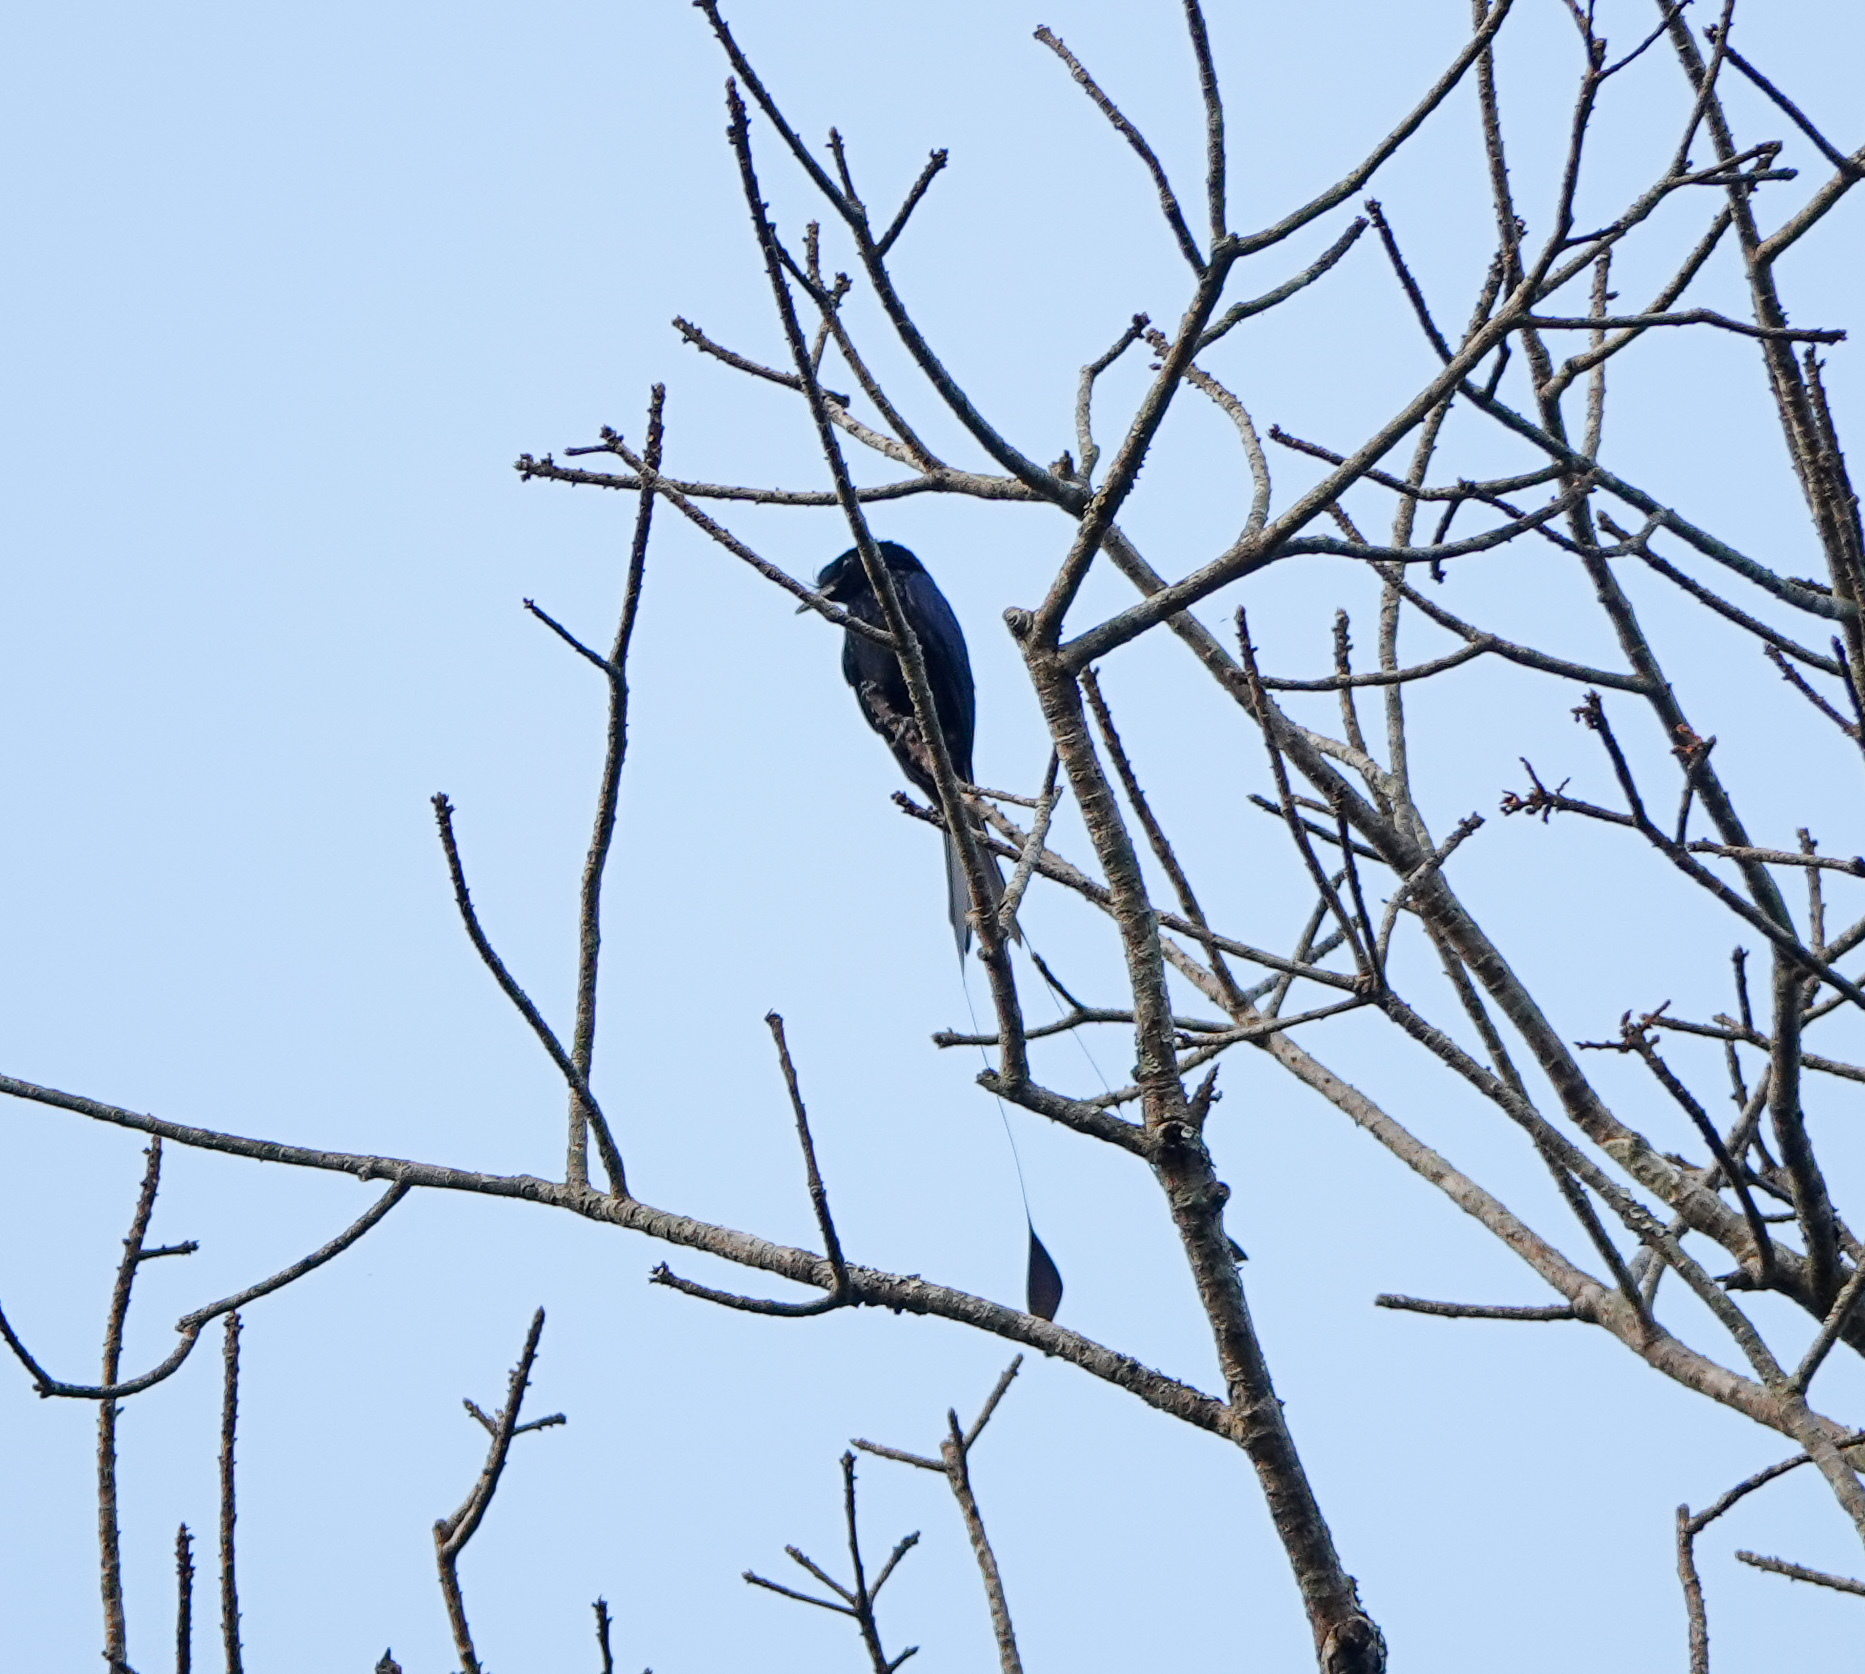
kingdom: Animalia
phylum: Chordata
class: Aves
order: Passeriformes
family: Dicruridae
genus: Dicrurus
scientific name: Dicrurus paradiseus
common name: Greater racket-tailed drongo
